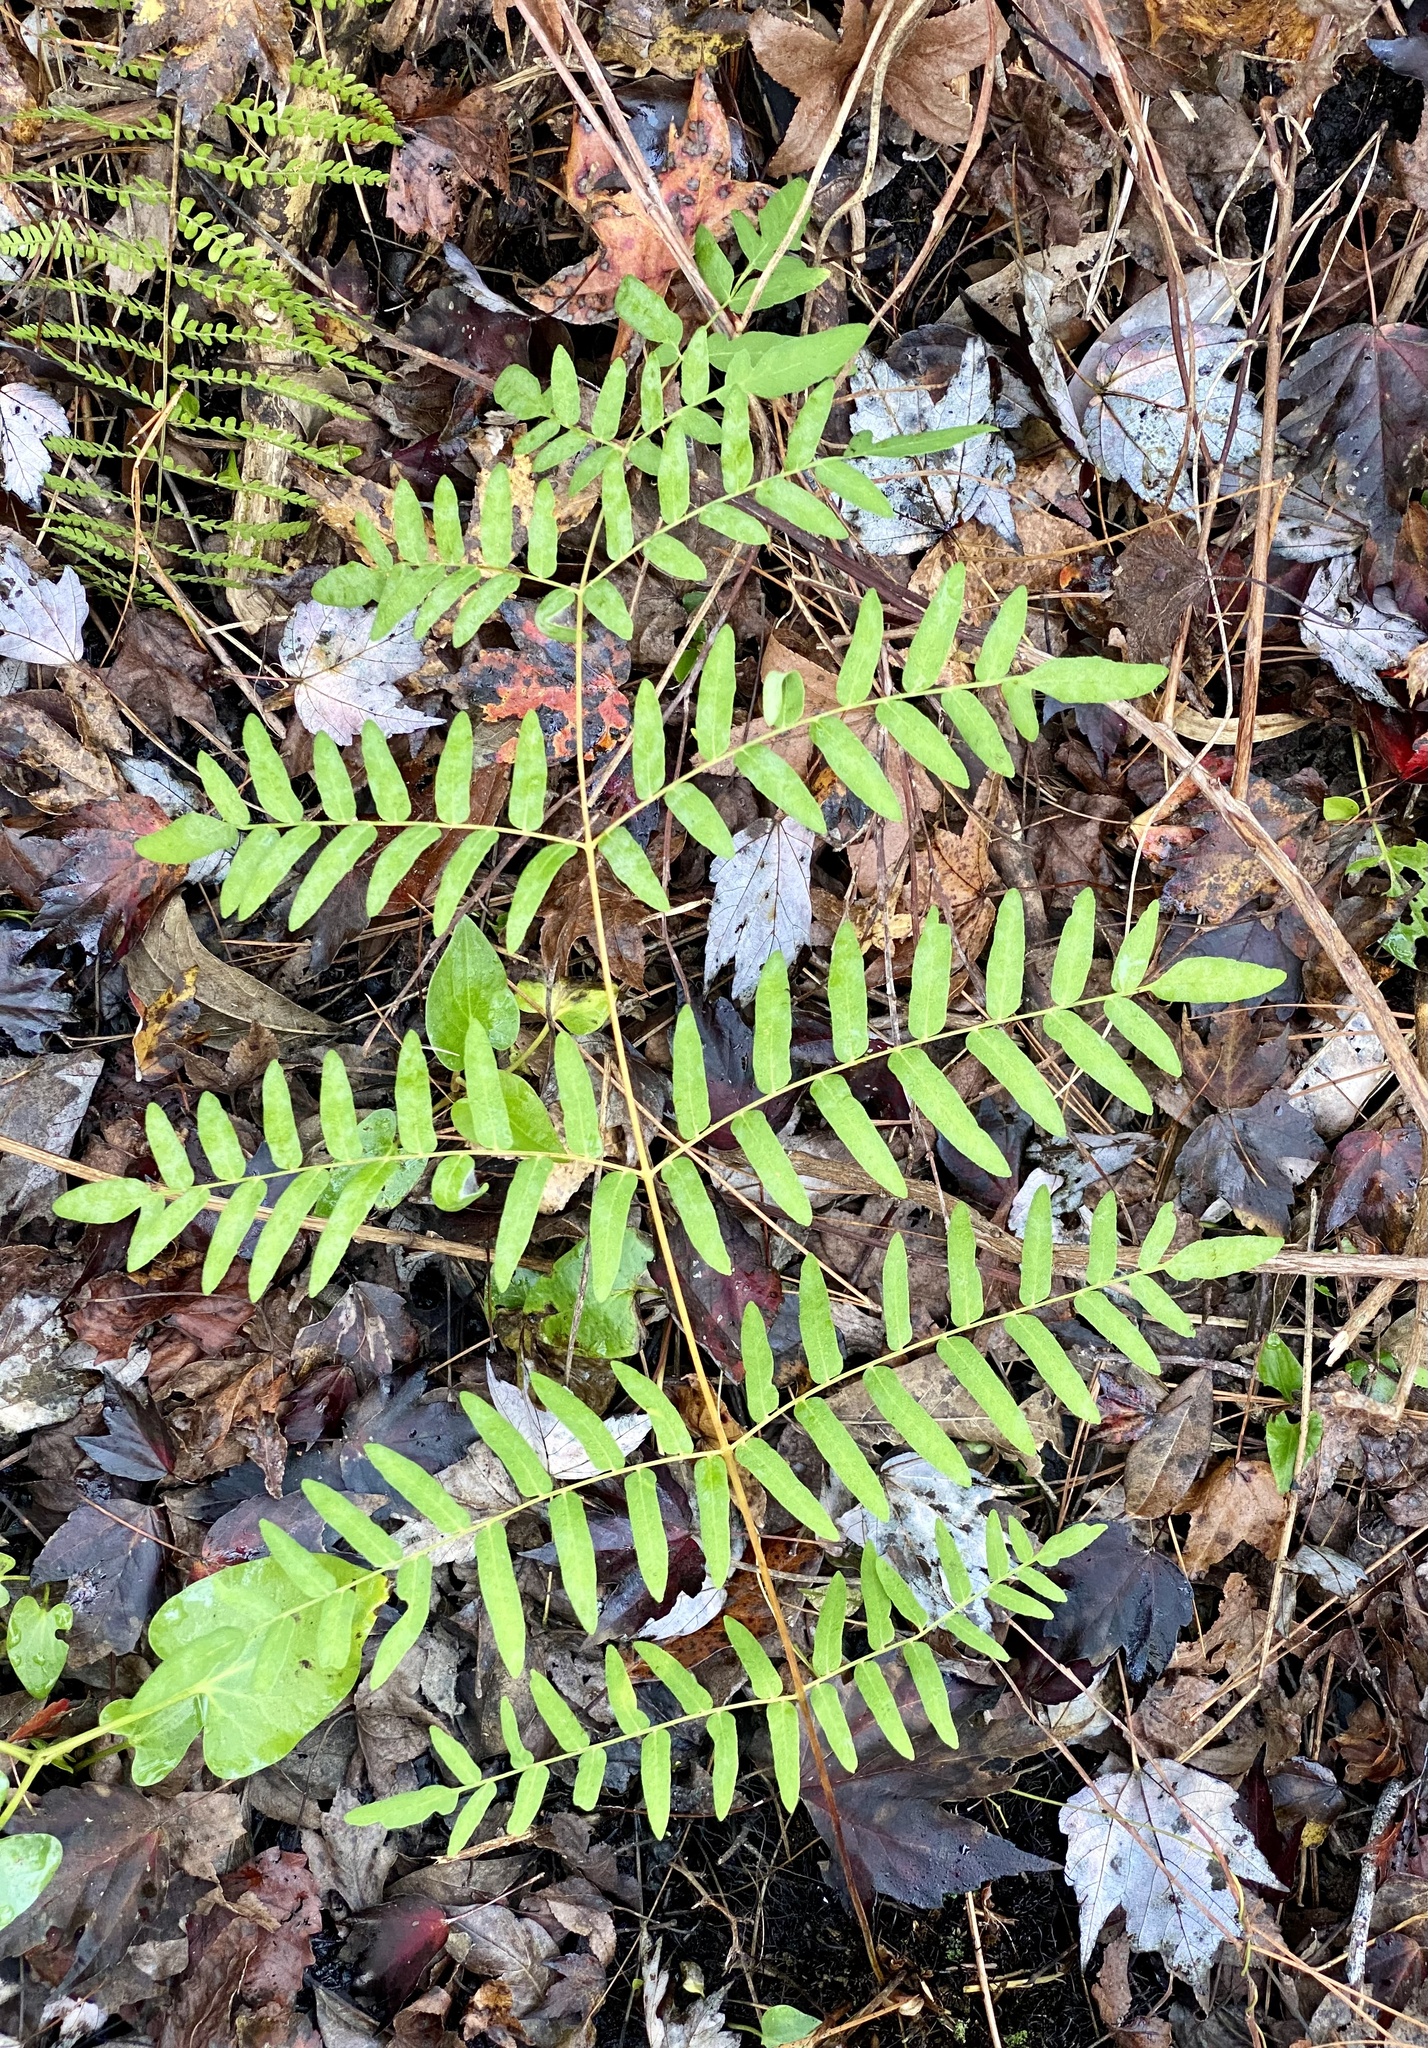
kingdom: Plantae
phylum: Tracheophyta
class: Polypodiopsida
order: Osmundales
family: Osmundaceae
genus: Osmunda
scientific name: Osmunda spectabilis
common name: American royal fern
